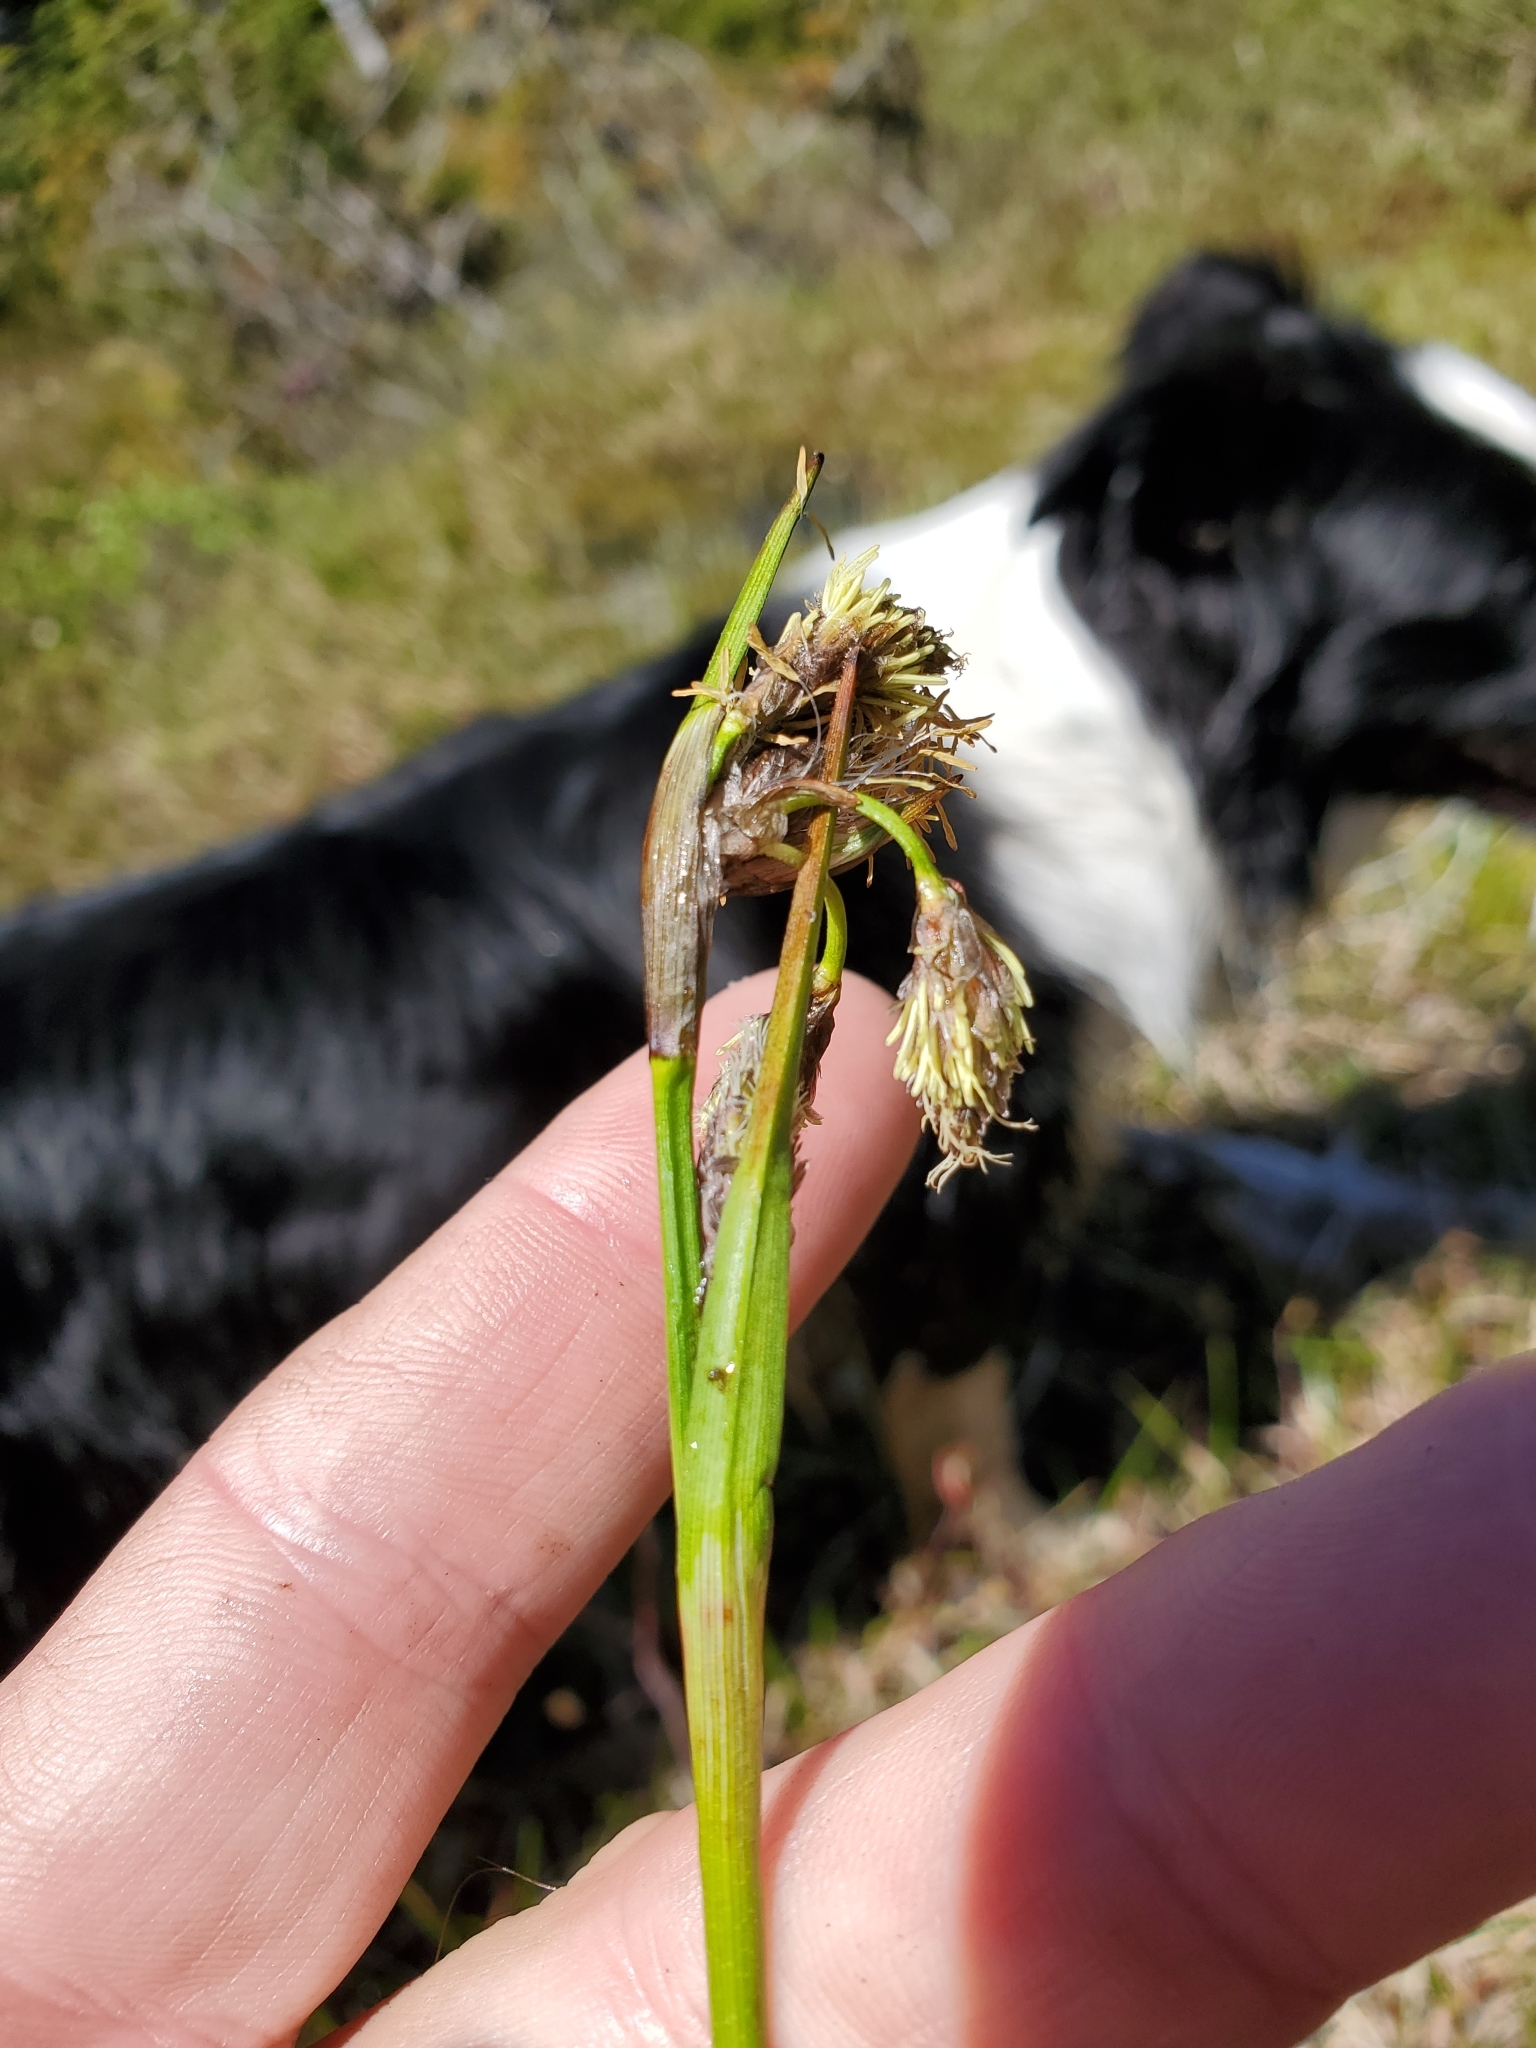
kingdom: Plantae
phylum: Tracheophyta
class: Liliopsida
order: Poales
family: Cyperaceae
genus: Eriophorum
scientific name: Eriophorum angustifolium
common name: Common cottongrass
